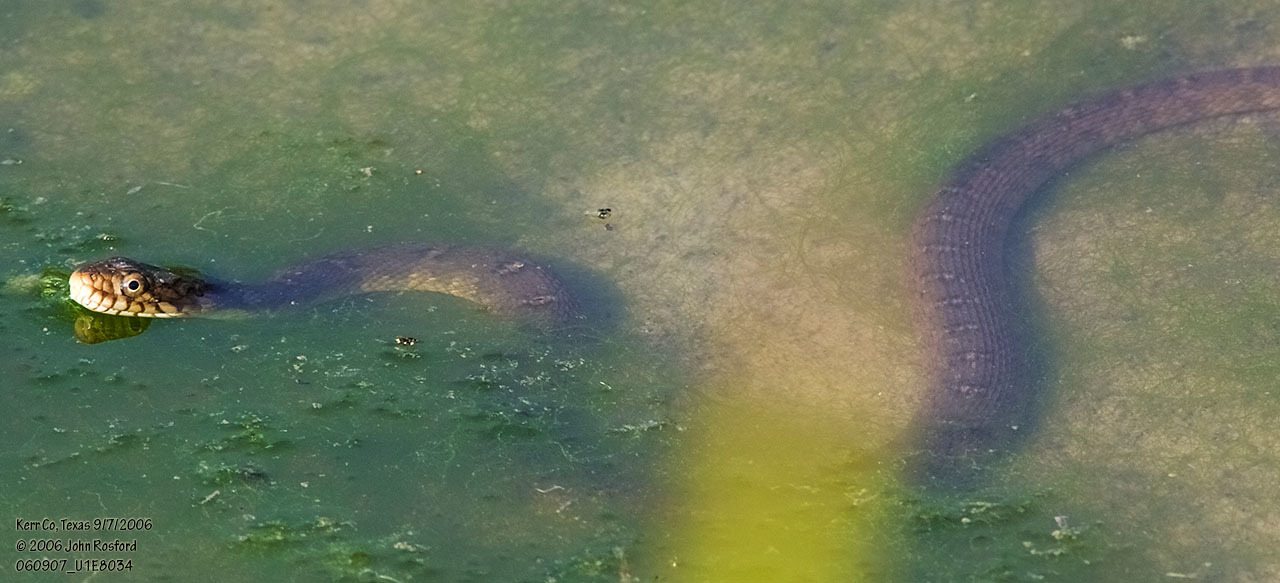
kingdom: Animalia
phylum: Chordata
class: Squamata
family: Colubridae
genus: Nerodia
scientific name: Nerodia erythrogaster
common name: Plainbelly water snake
